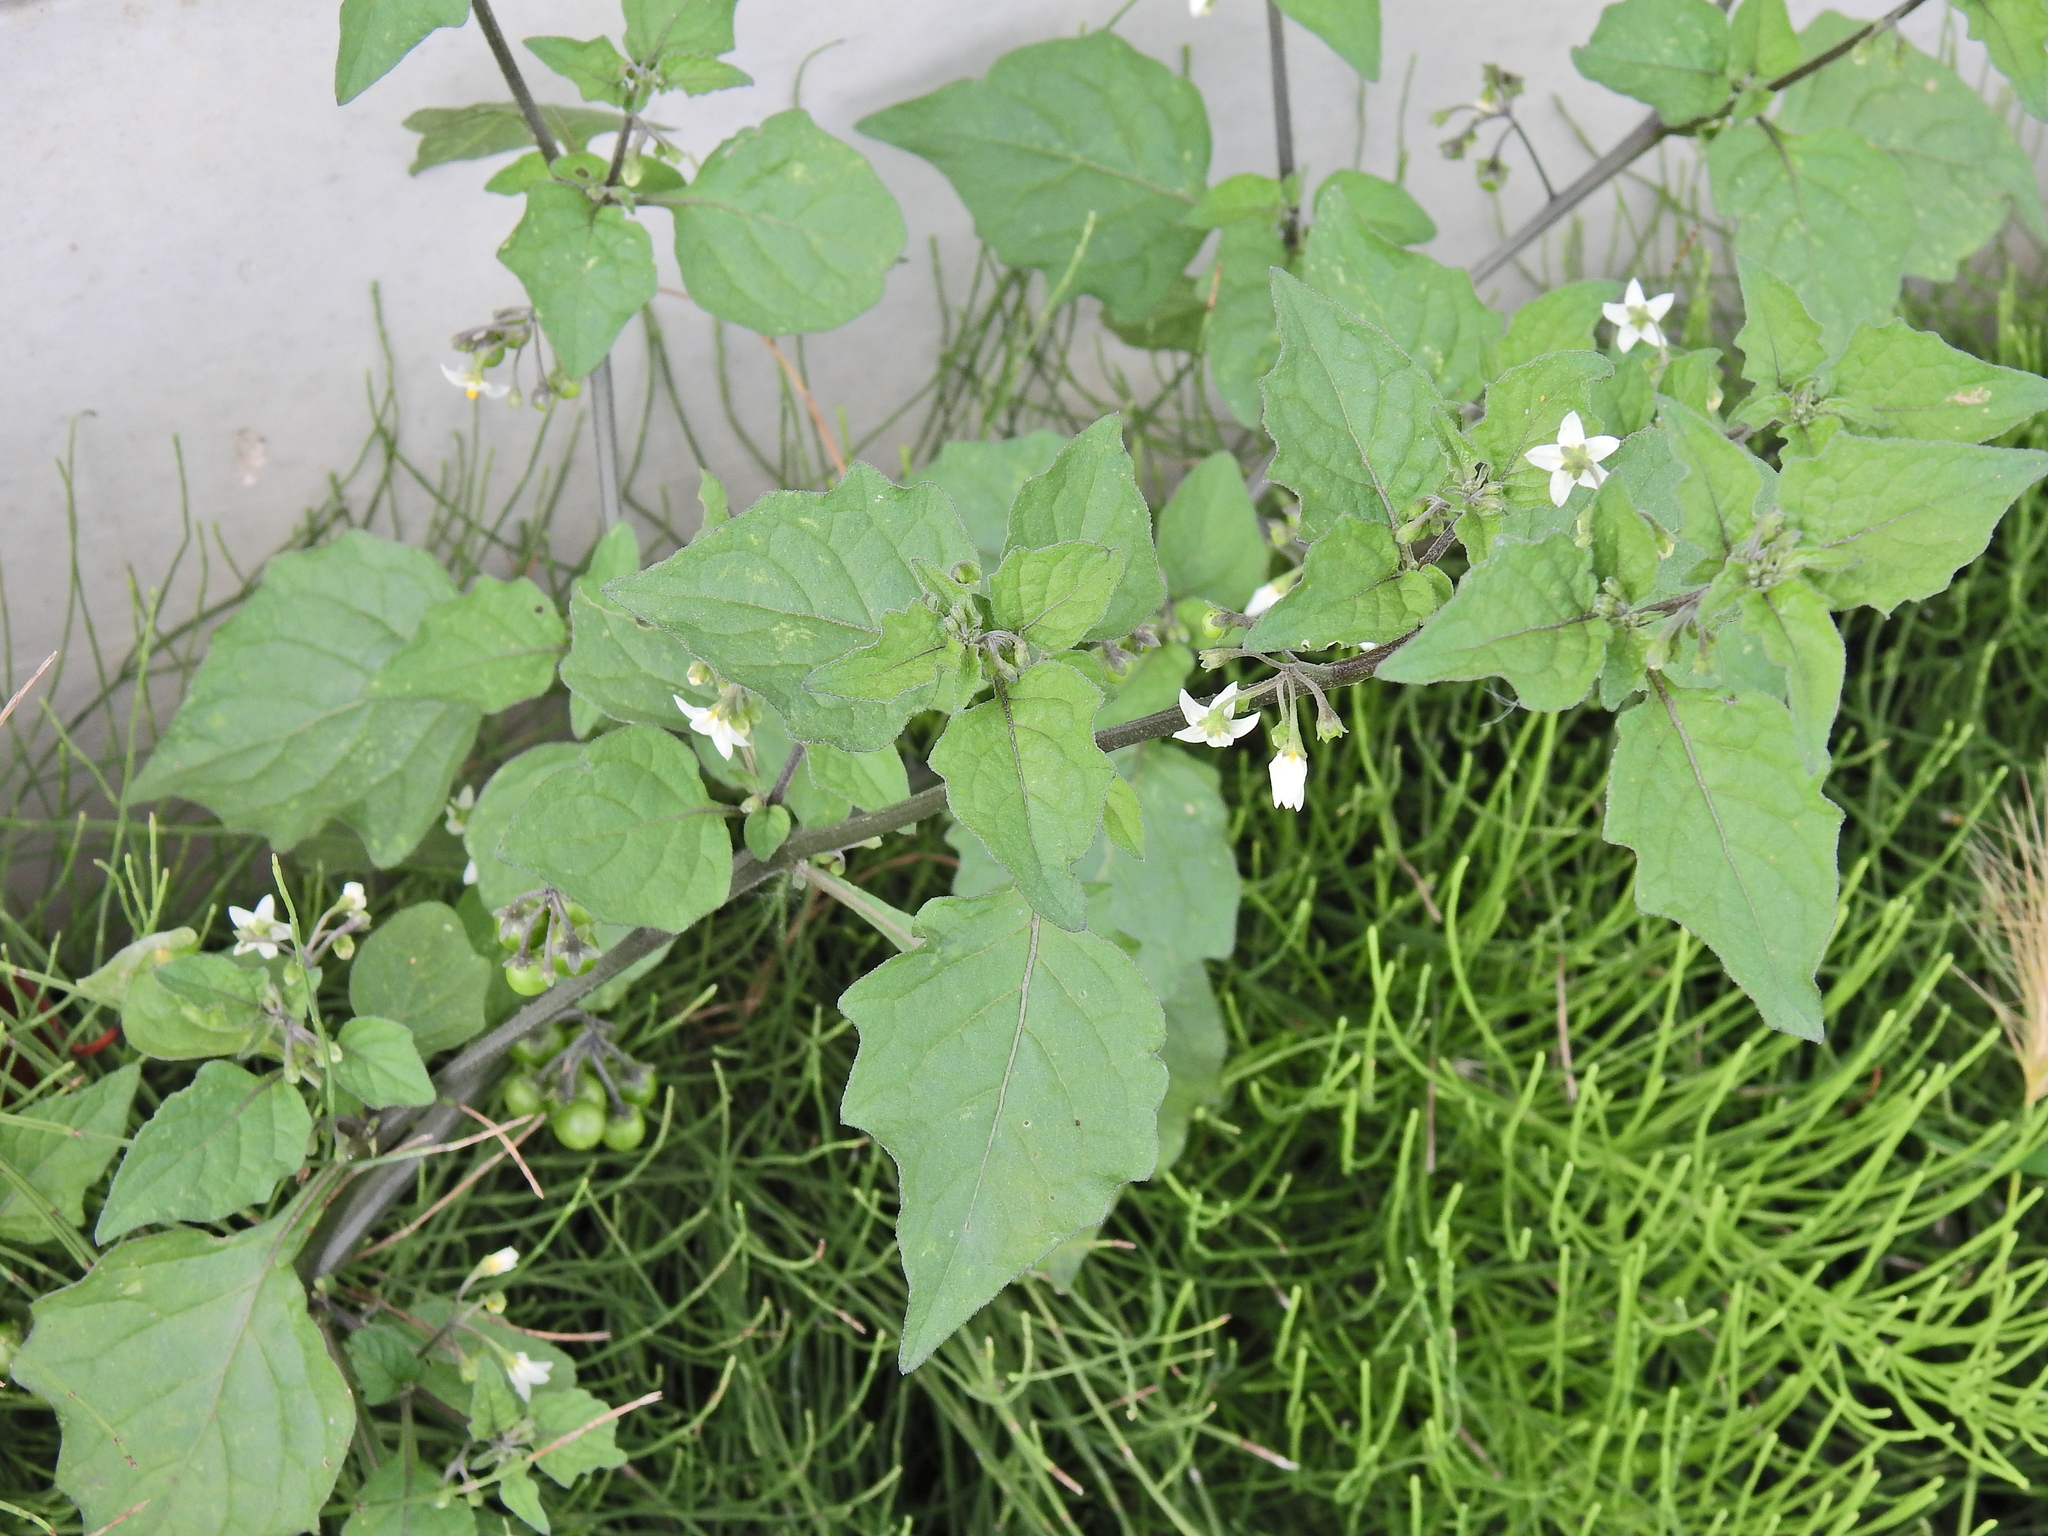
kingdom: Plantae
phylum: Tracheophyta
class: Magnoliopsida
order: Solanales
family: Solanaceae
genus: Solanum
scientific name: Solanum nigrum
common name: Black nightshade
